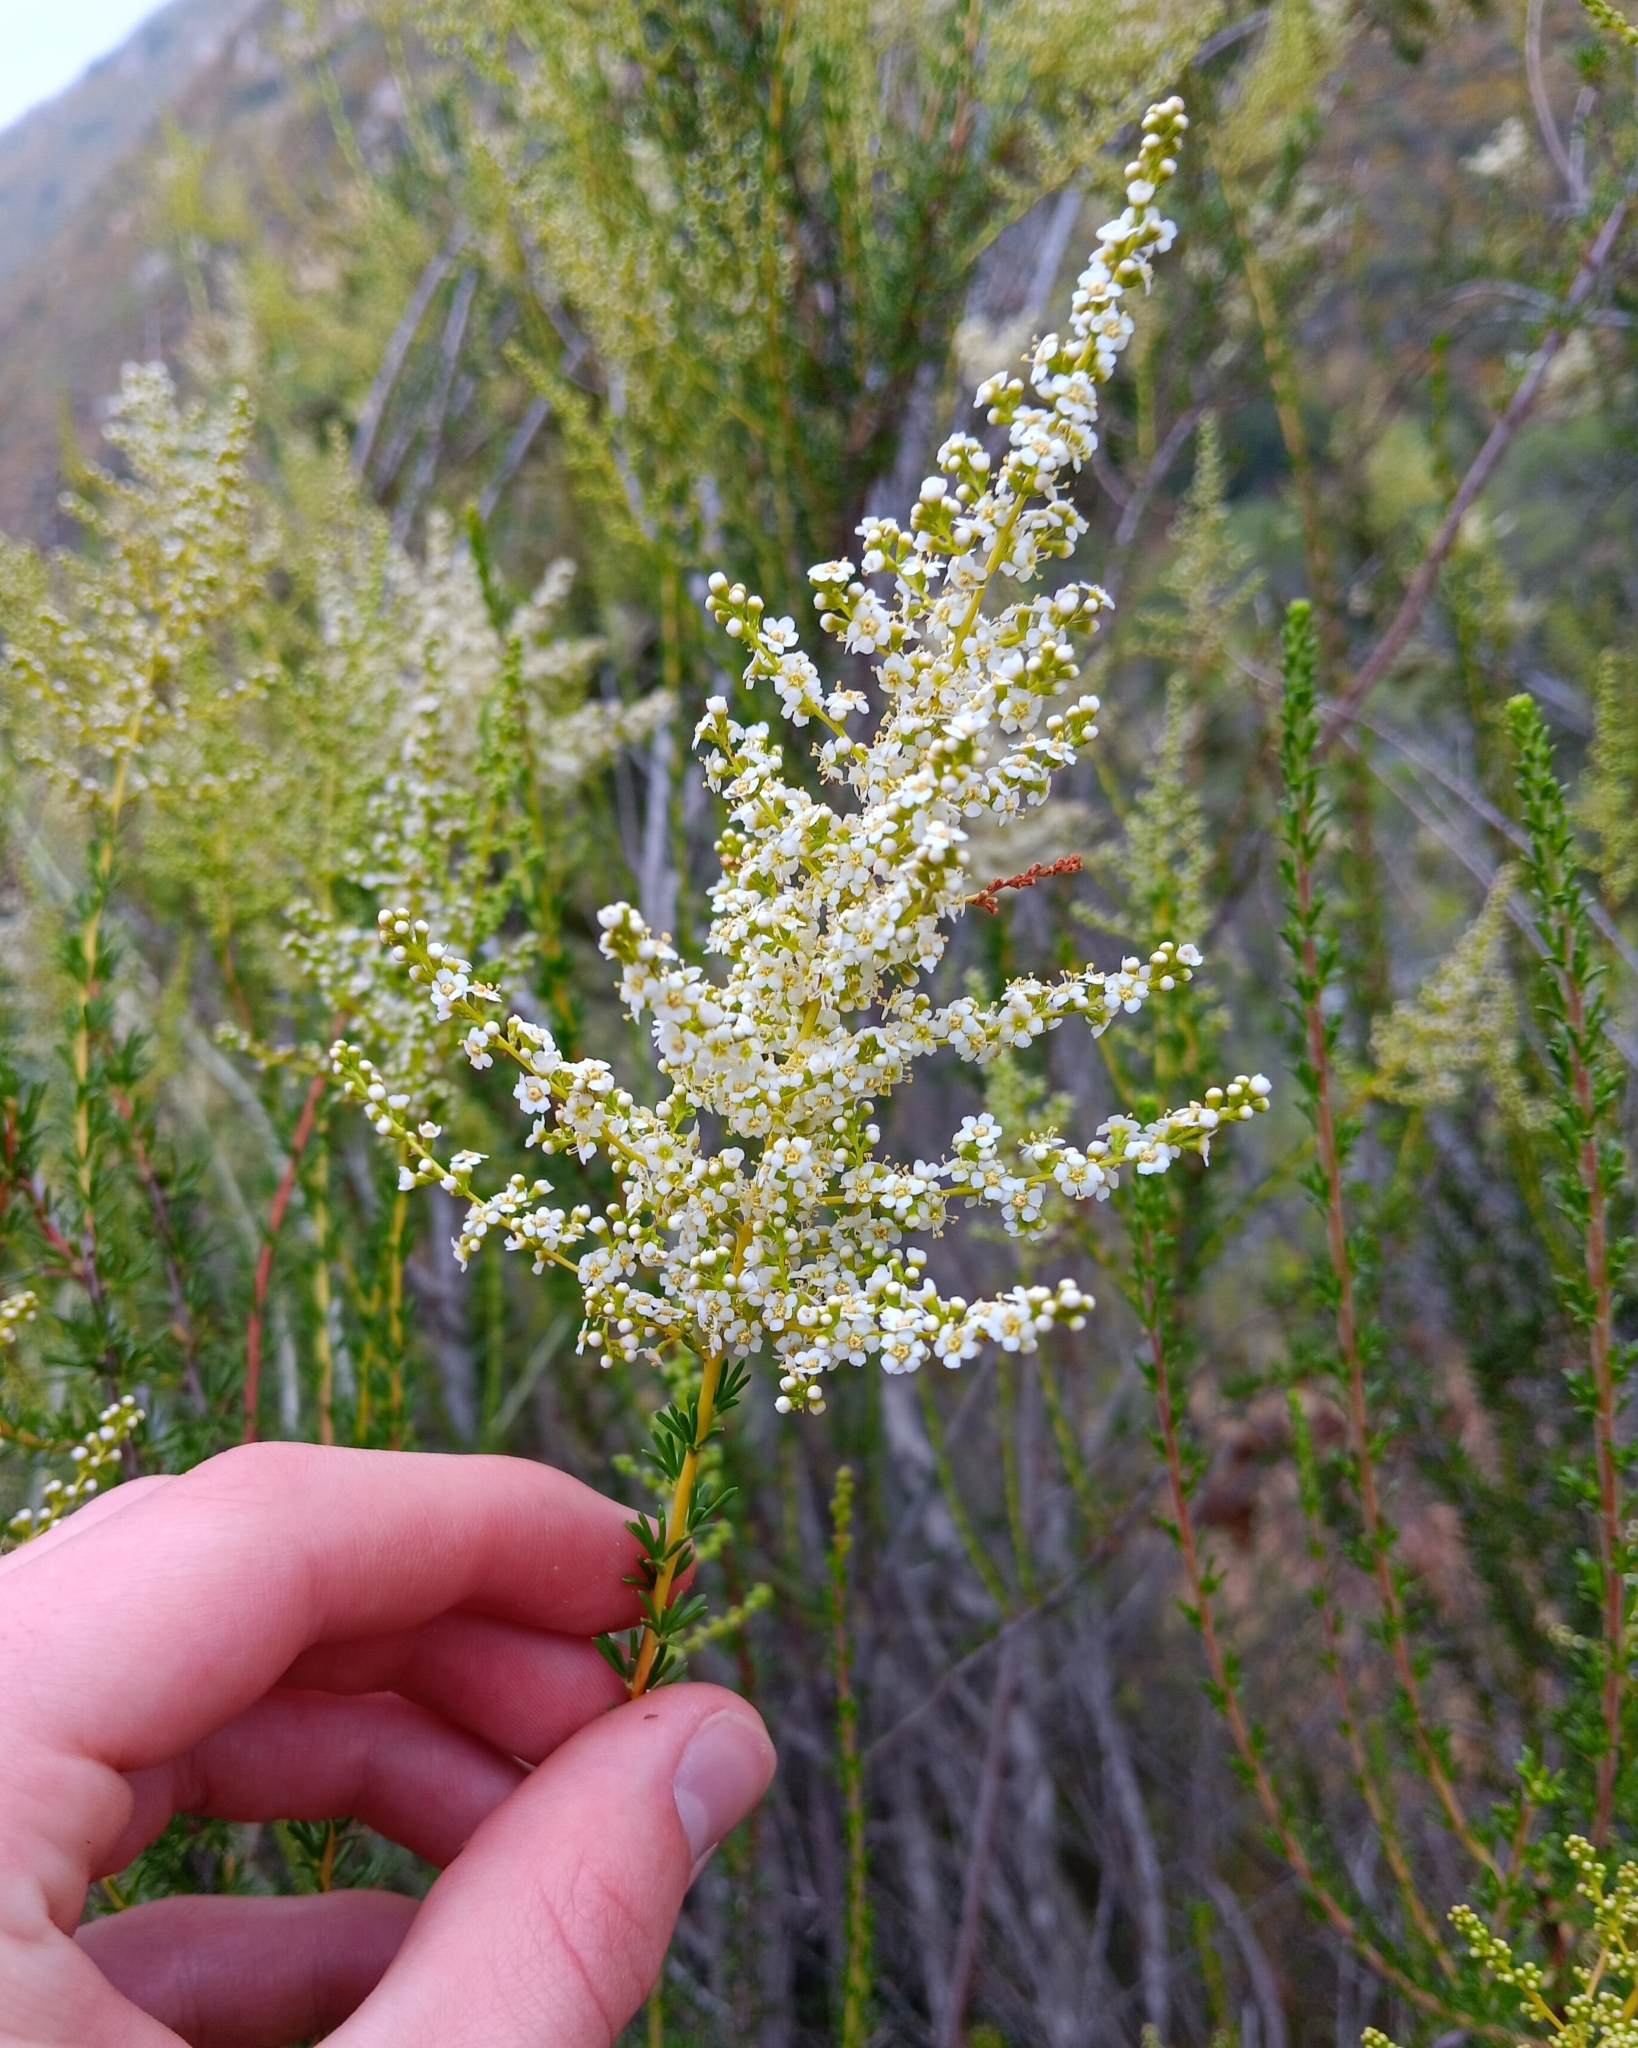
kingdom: Plantae
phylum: Tracheophyta
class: Magnoliopsida
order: Rosales
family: Rosaceae
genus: Adenostoma
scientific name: Adenostoma fasciculatum
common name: Chamise
